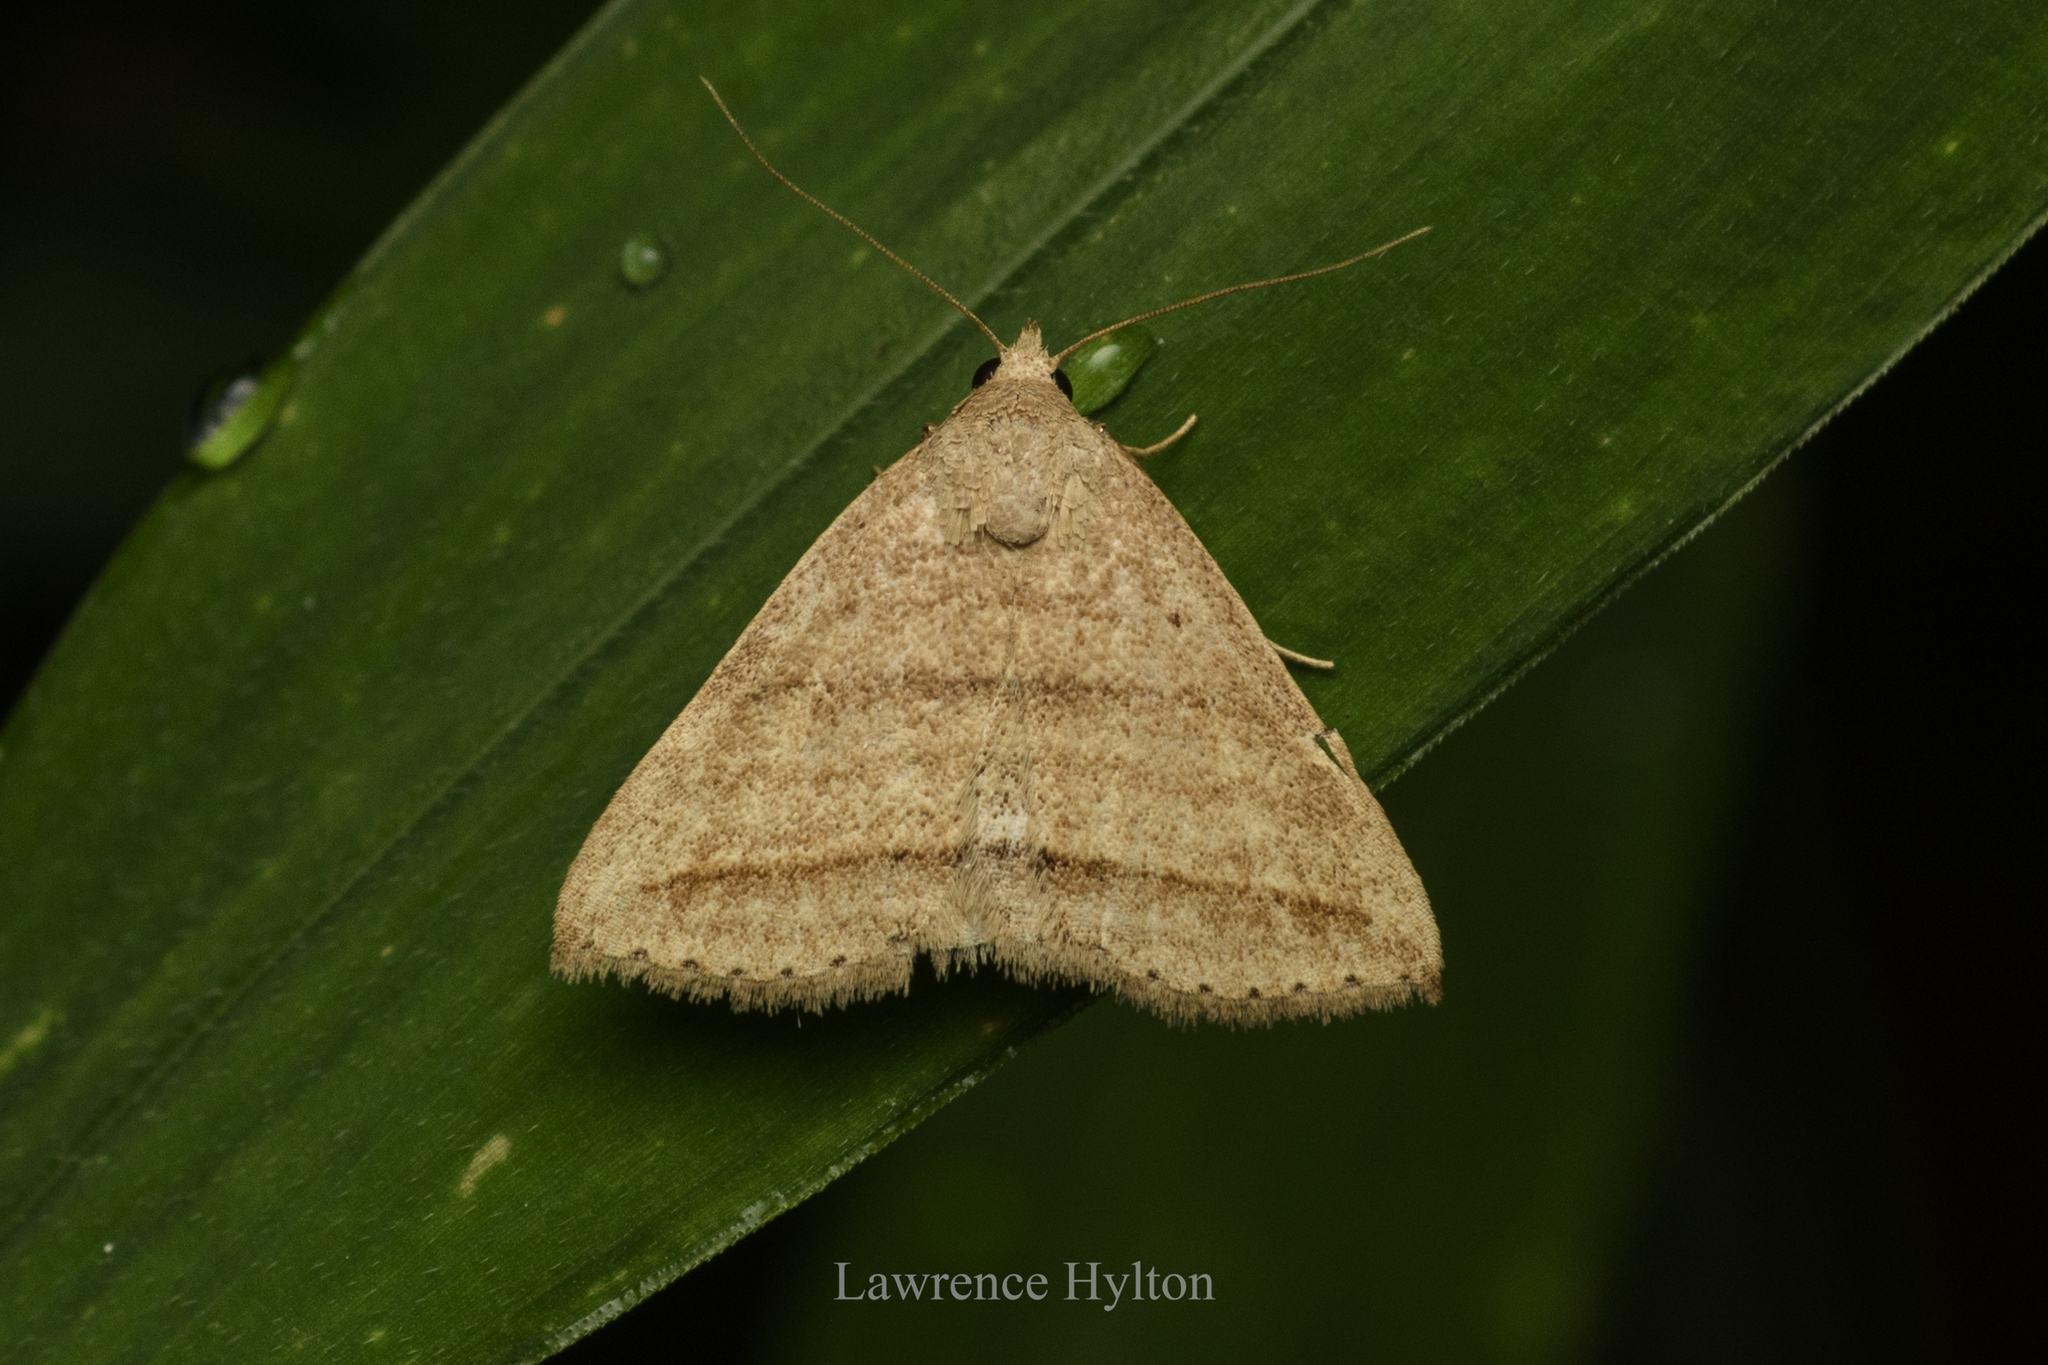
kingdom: Animalia
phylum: Arthropoda
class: Insecta
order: Lepidoptera
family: Erebidae
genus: Loxioda
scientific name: Loxioda similis
